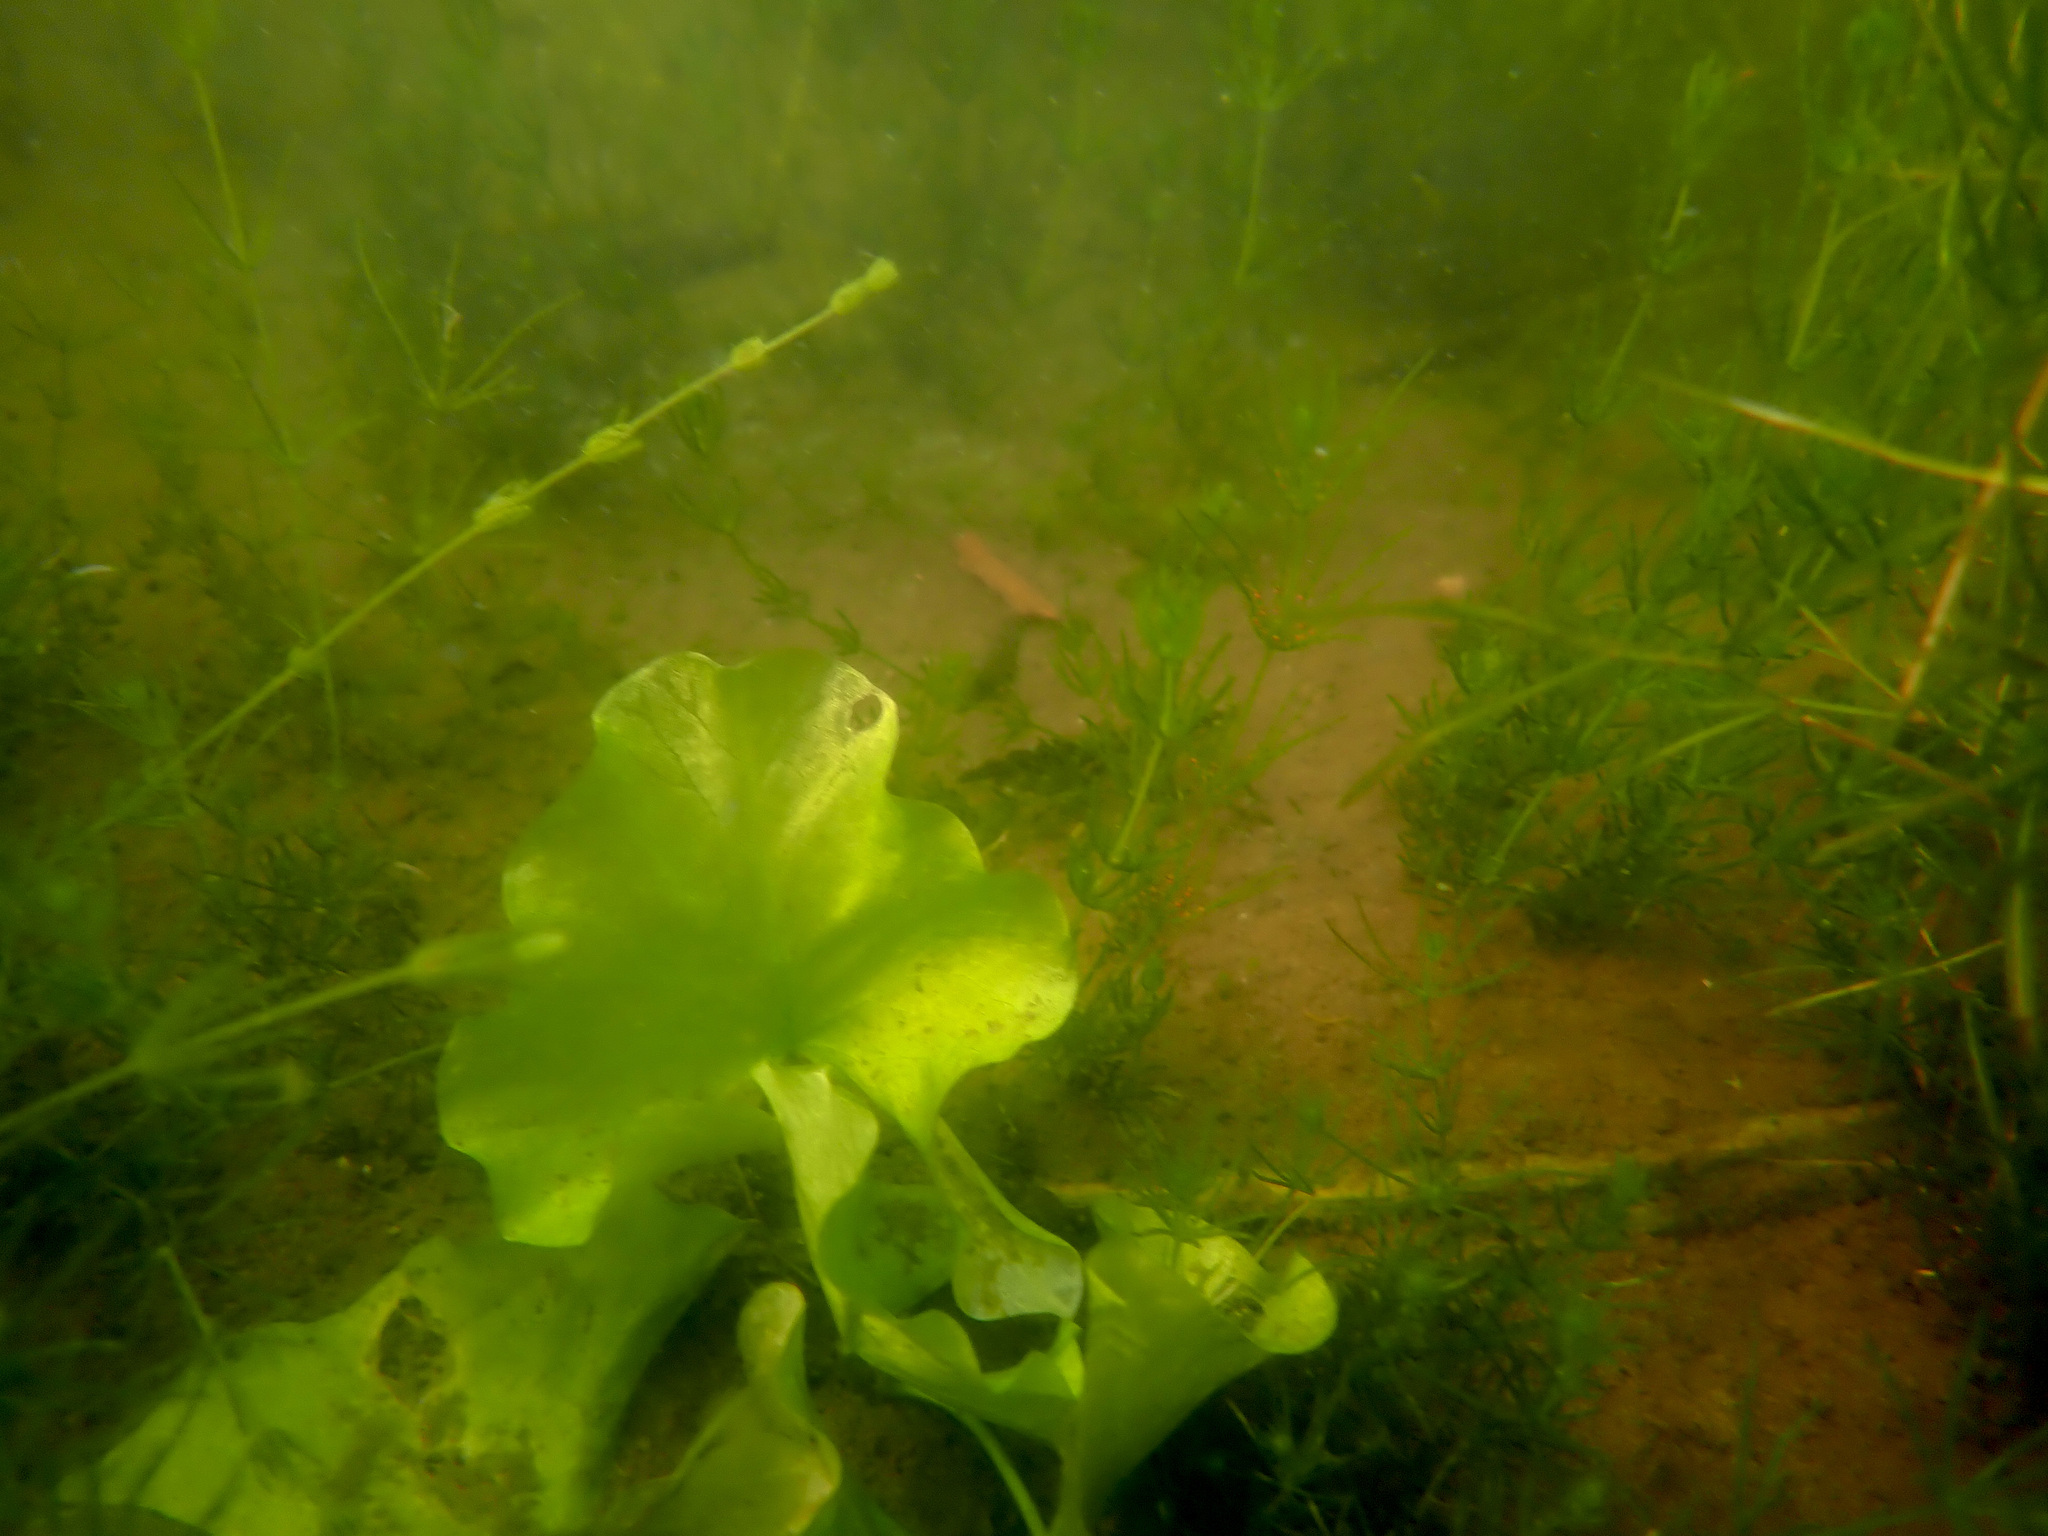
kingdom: Plantae
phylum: Tracheophyta
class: Magnoliopsida
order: Nymphaeales
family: Nymphaeaceae
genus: Nuphar
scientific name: Nuphar polysepala
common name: Rocky mountain cow-lily
